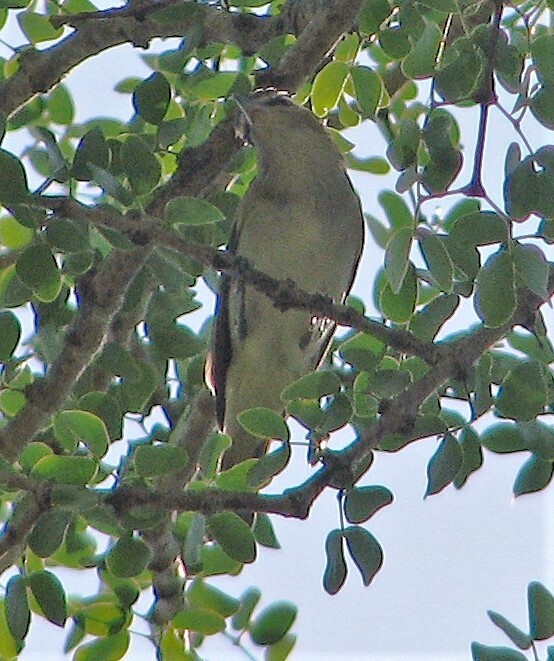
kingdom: Animalia
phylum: Chordata
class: Aves
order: Passeriformes
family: Vireonidae
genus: Vireo
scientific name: Vireo olivaceus
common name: Red-eyed vireo
